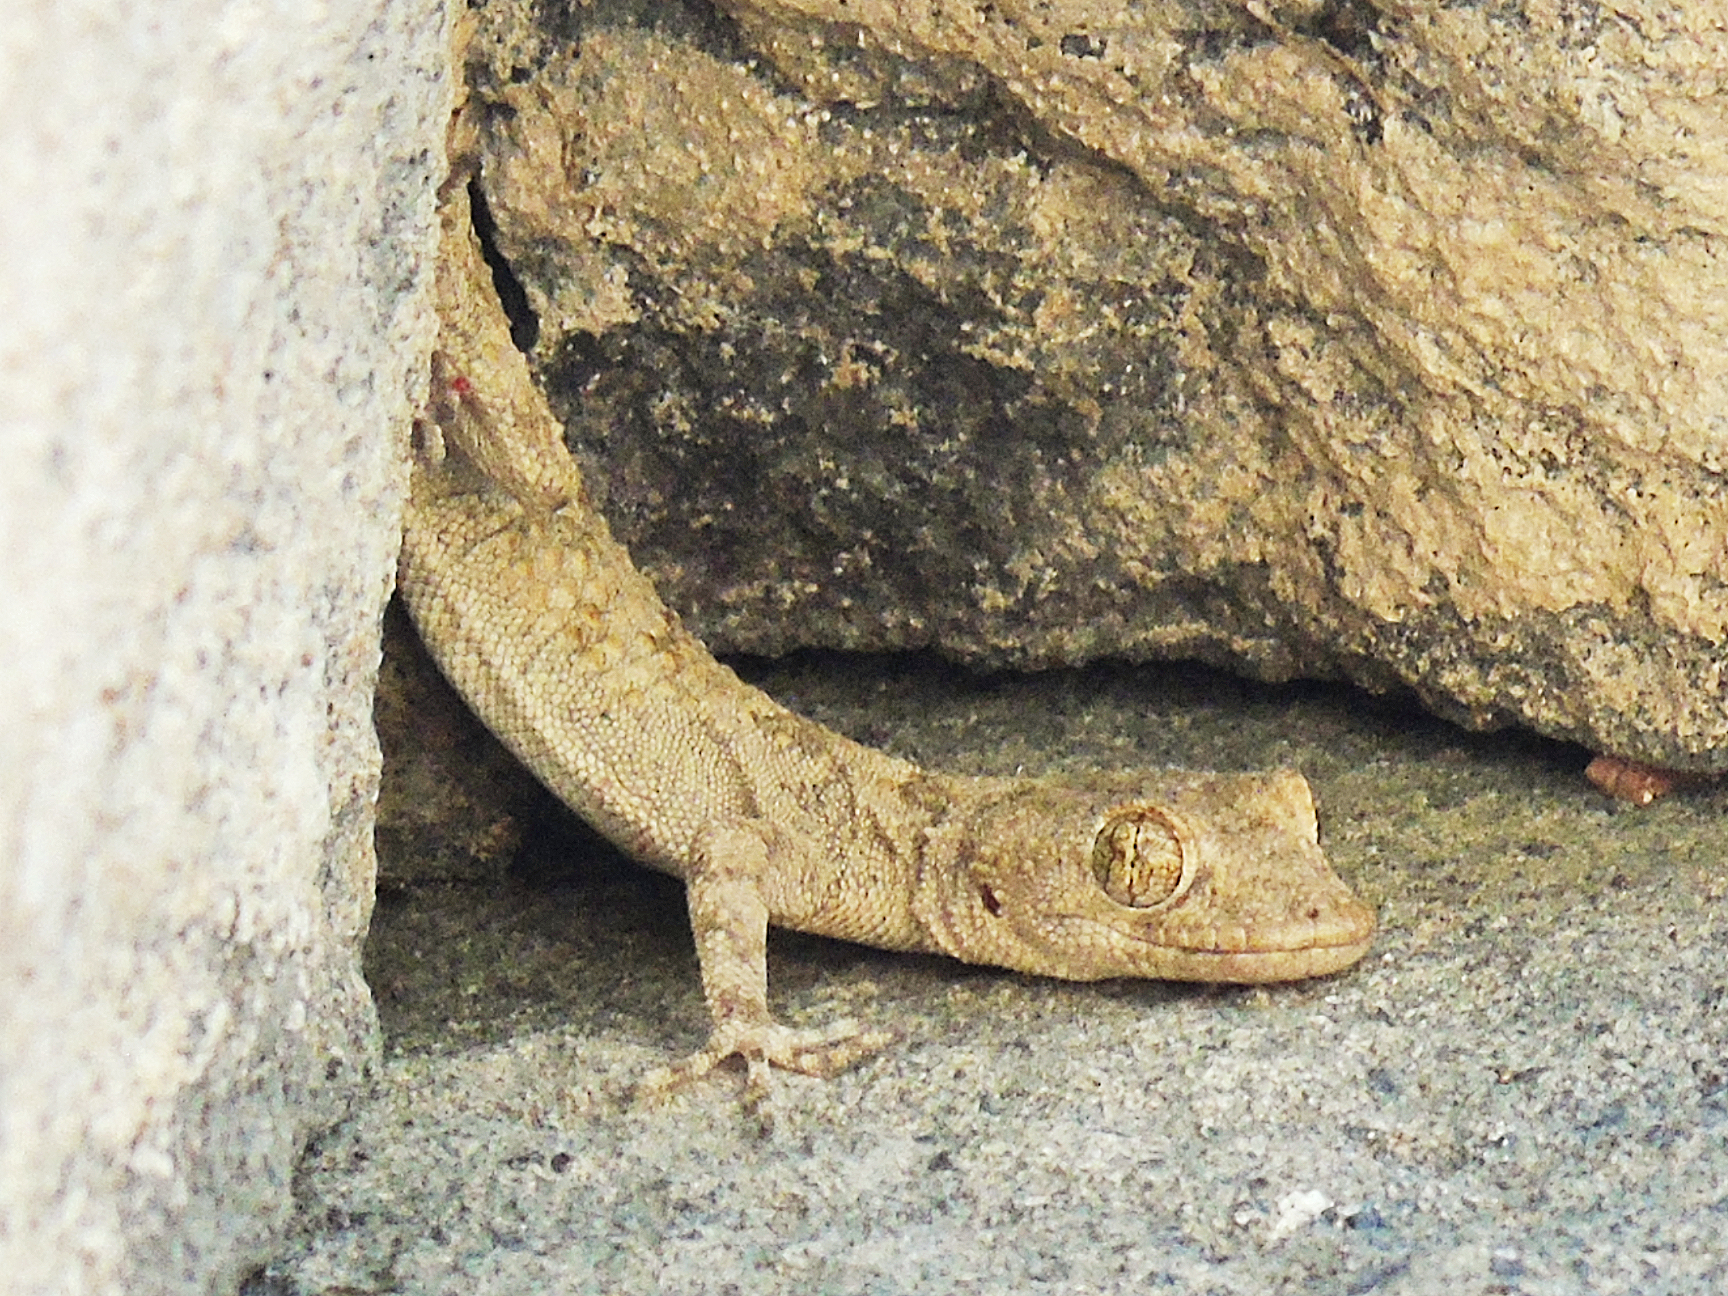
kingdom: Animalia
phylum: Chordata
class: Squamata
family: Gekkonidae
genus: Mediodactylus
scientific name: Mediodactylus heterocercus
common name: Asia minor thin-toed gecko
